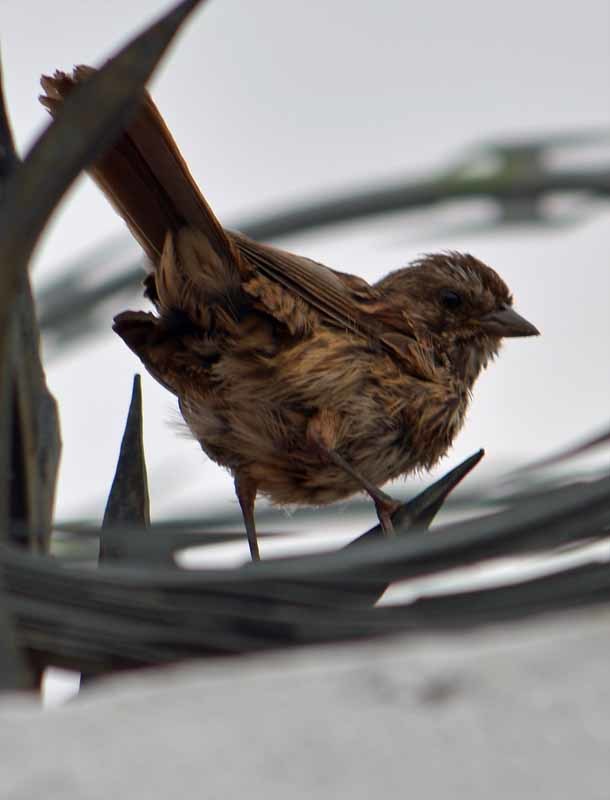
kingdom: Animalia
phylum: Chordata
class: Aves
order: Passeriformes
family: Passerellidae
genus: Melospiza
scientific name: Melospiza melodia
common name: Song sparrow
